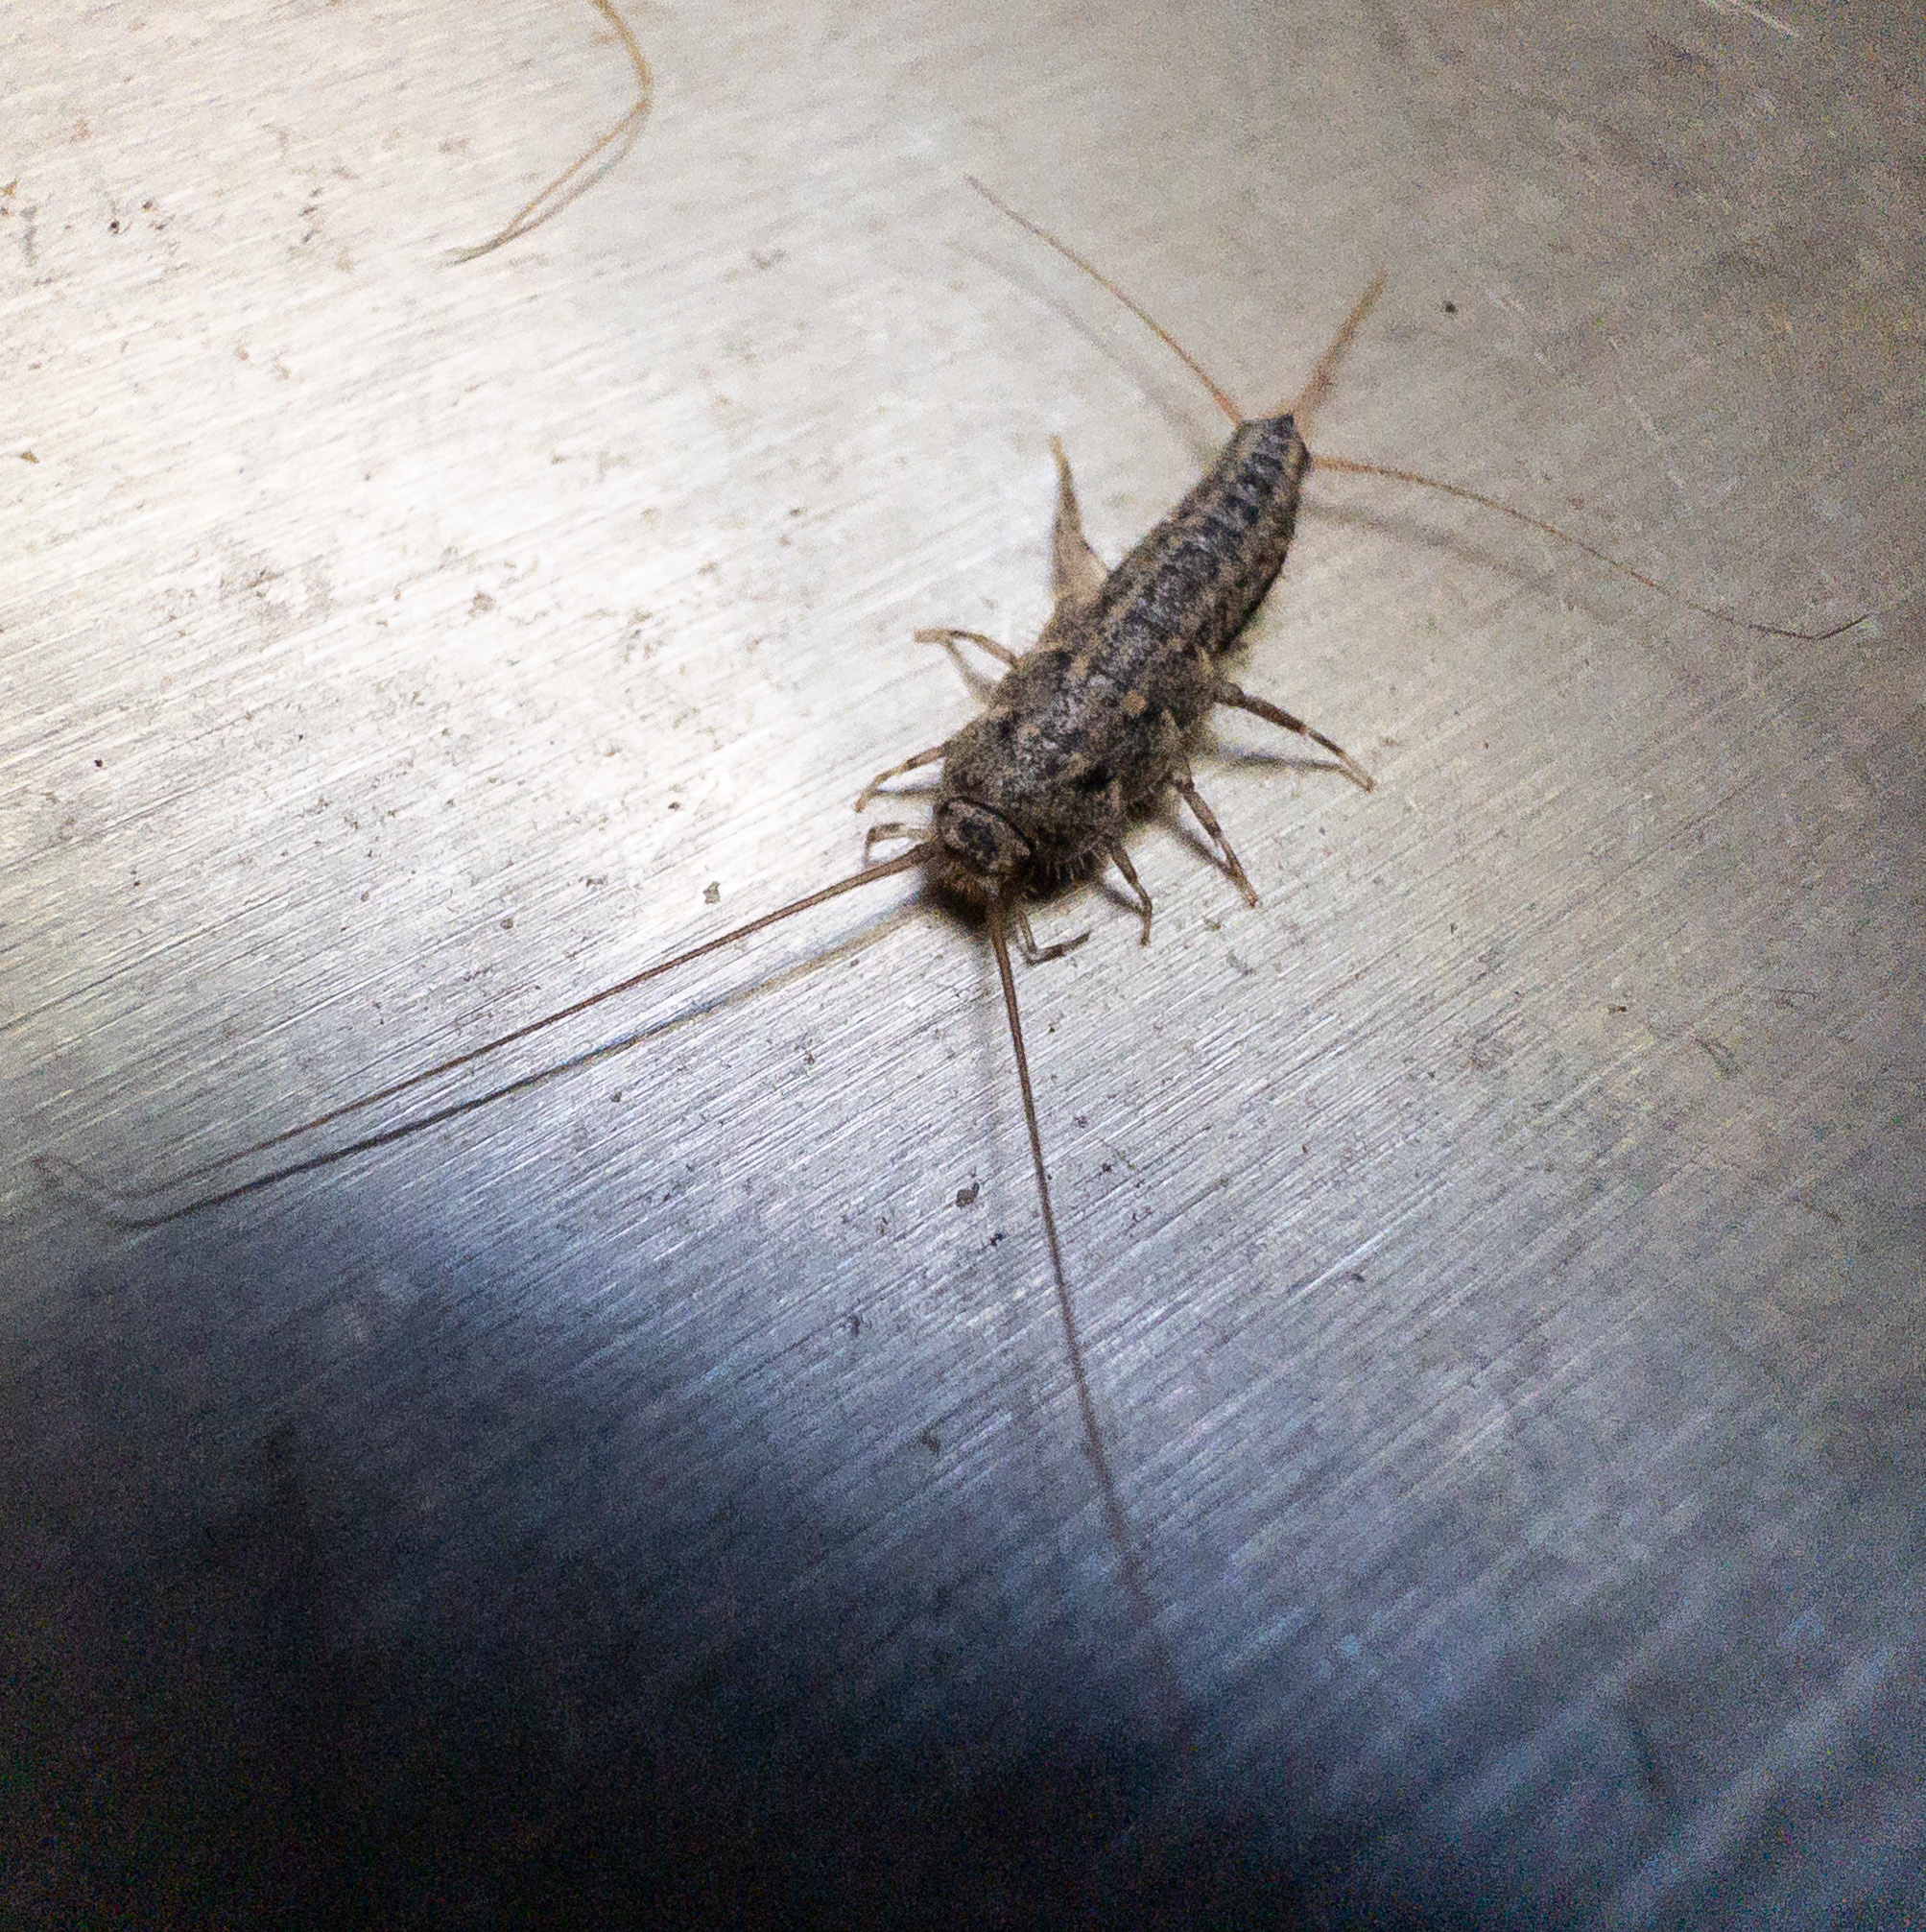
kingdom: Animalia
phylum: Arthropoda
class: Insecta
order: Zygentoma
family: Lepismatidae
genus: Ctenolepisma
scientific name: Ctenolepisma lineata
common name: Four-lined silverfish
